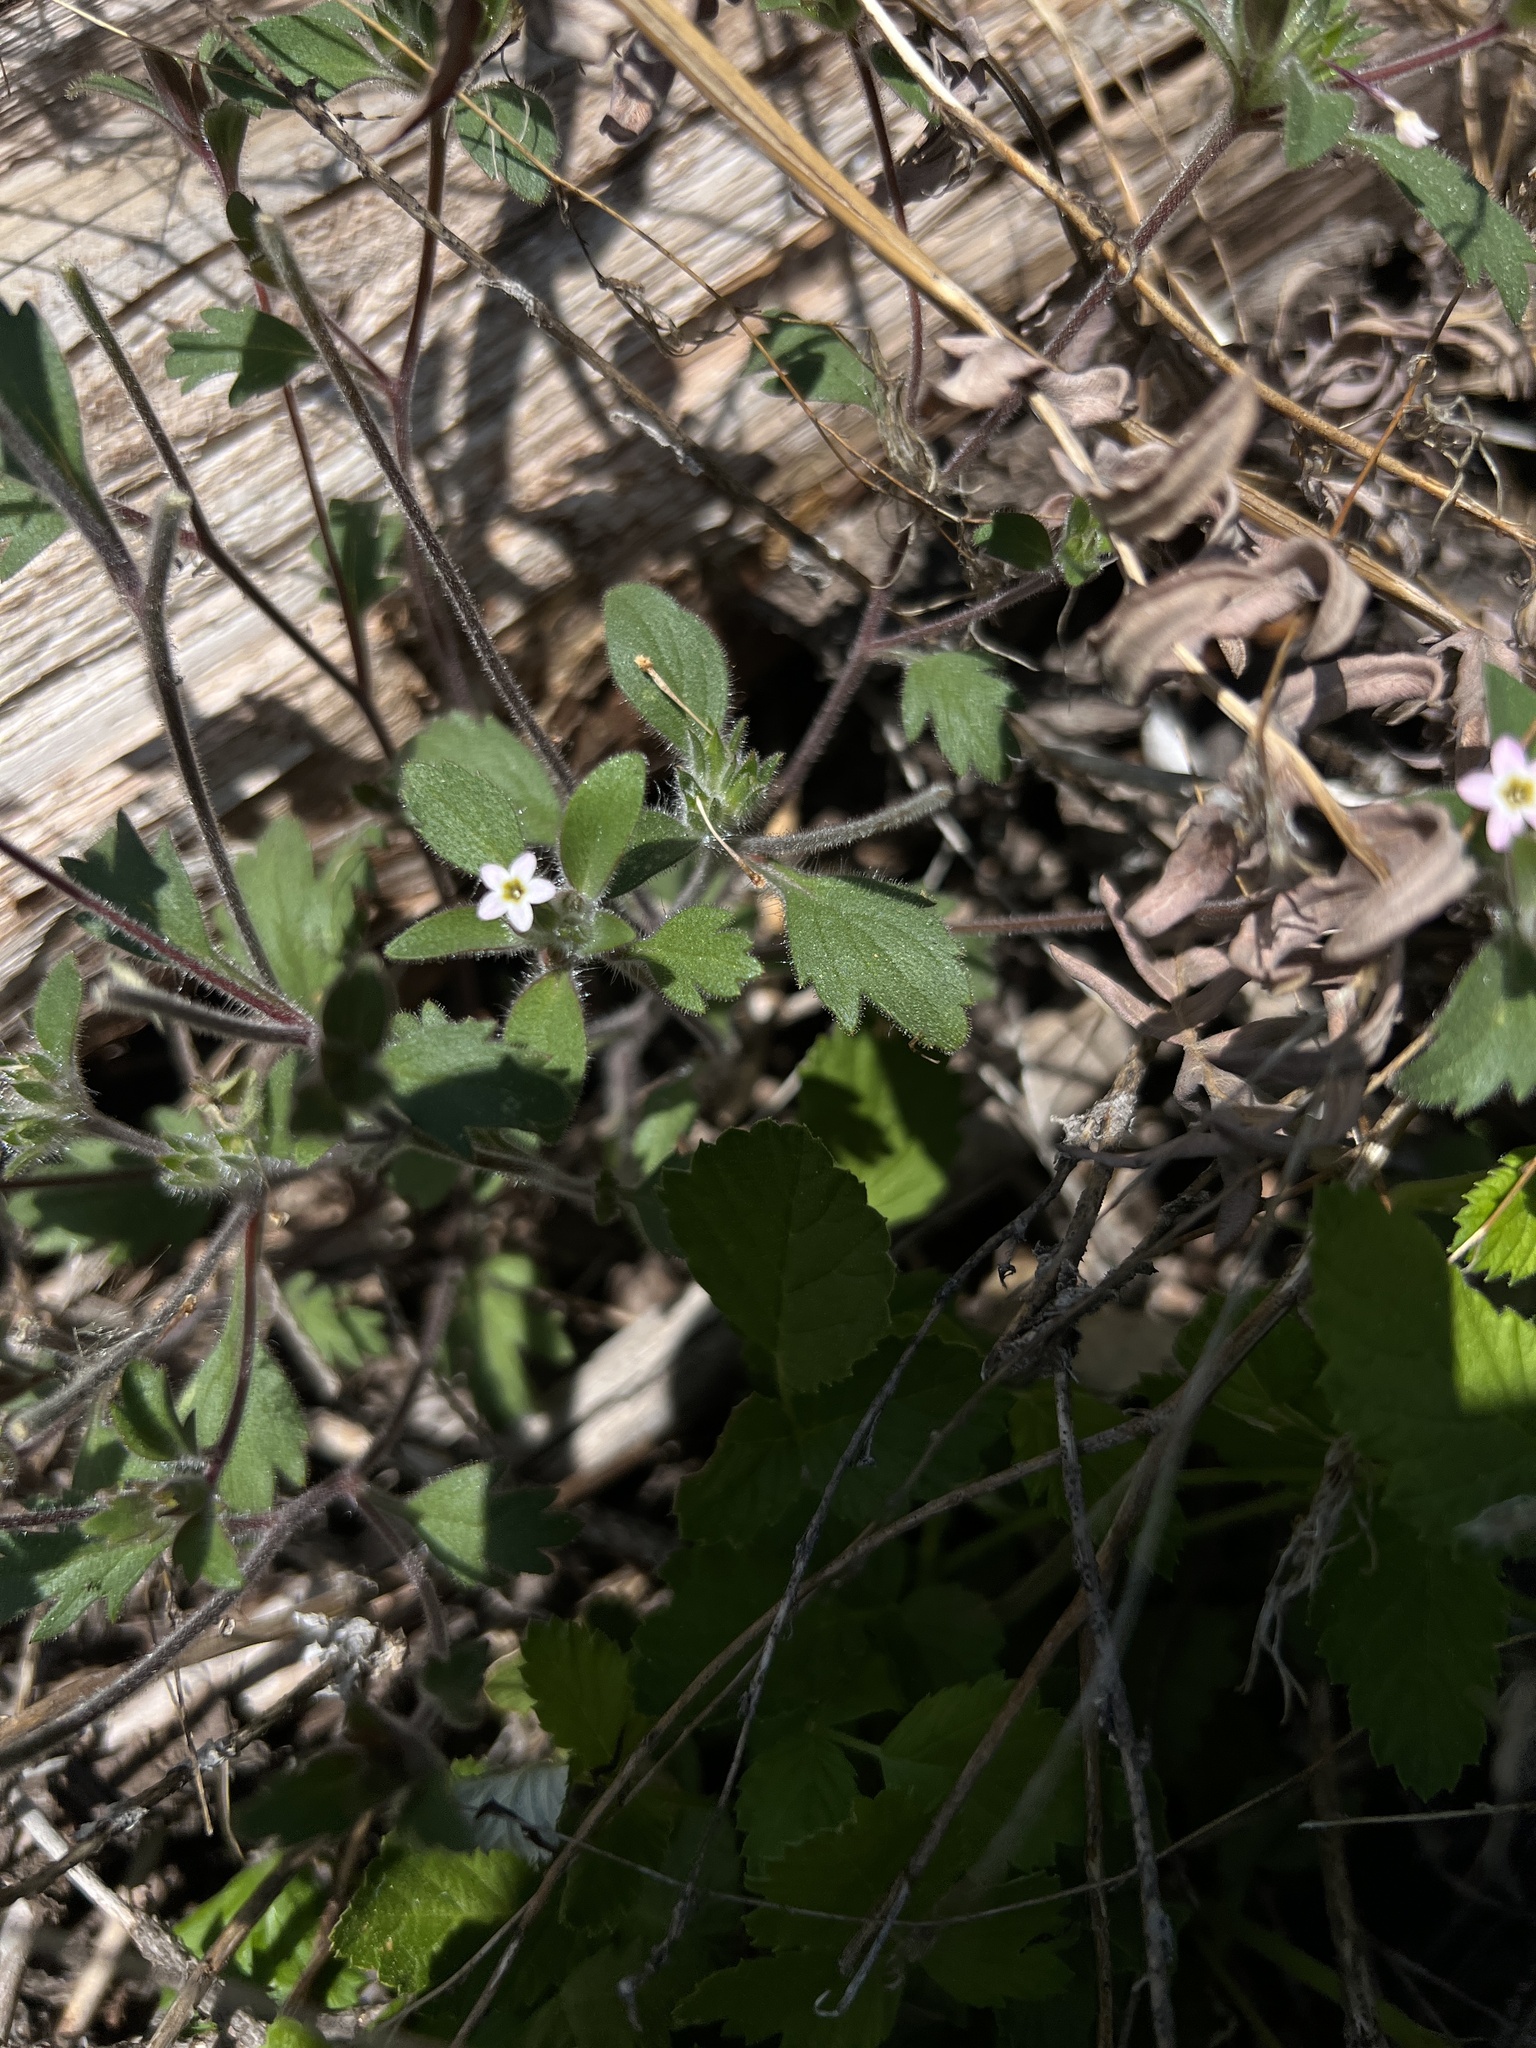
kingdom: Plantae
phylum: Tracheophyta
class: Magnoliopsida
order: Ericales
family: Polemoniaceae
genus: Collomia
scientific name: Collomia heterophylla
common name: Variable-leaved collomia
